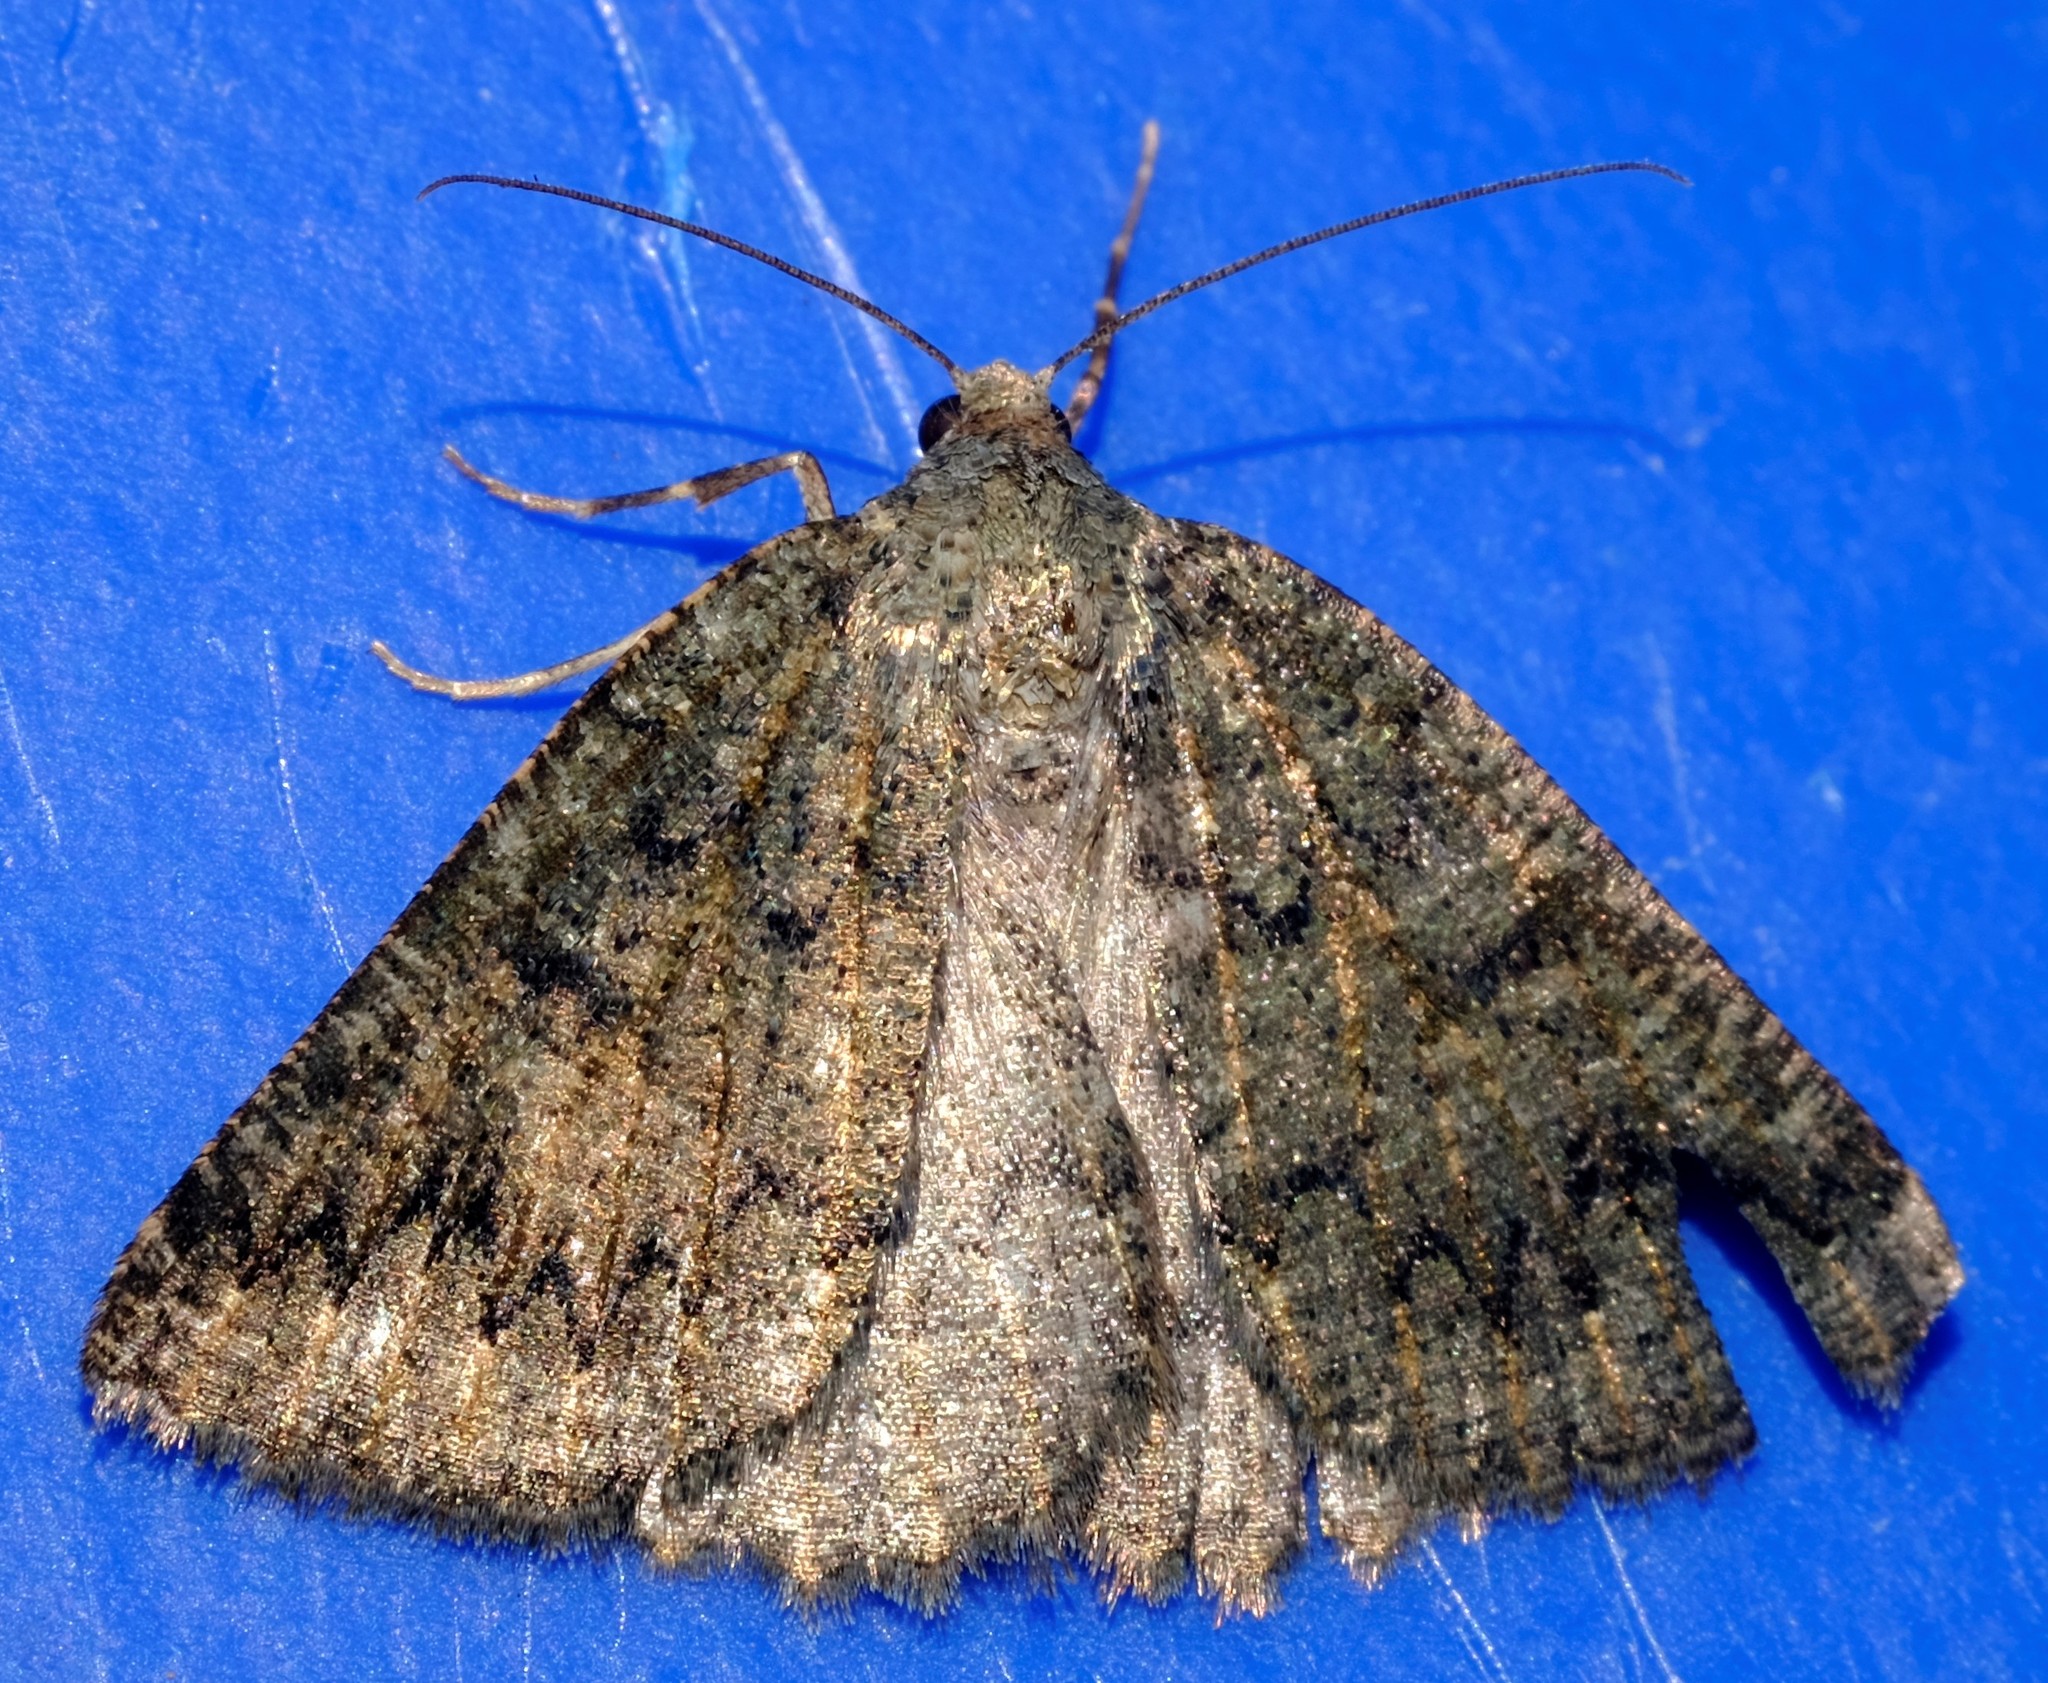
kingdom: Animalia
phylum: Arthropoda
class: Insecta
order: Lepidoptera
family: Geometridae
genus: Lackrana
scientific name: Lackrana carbo
